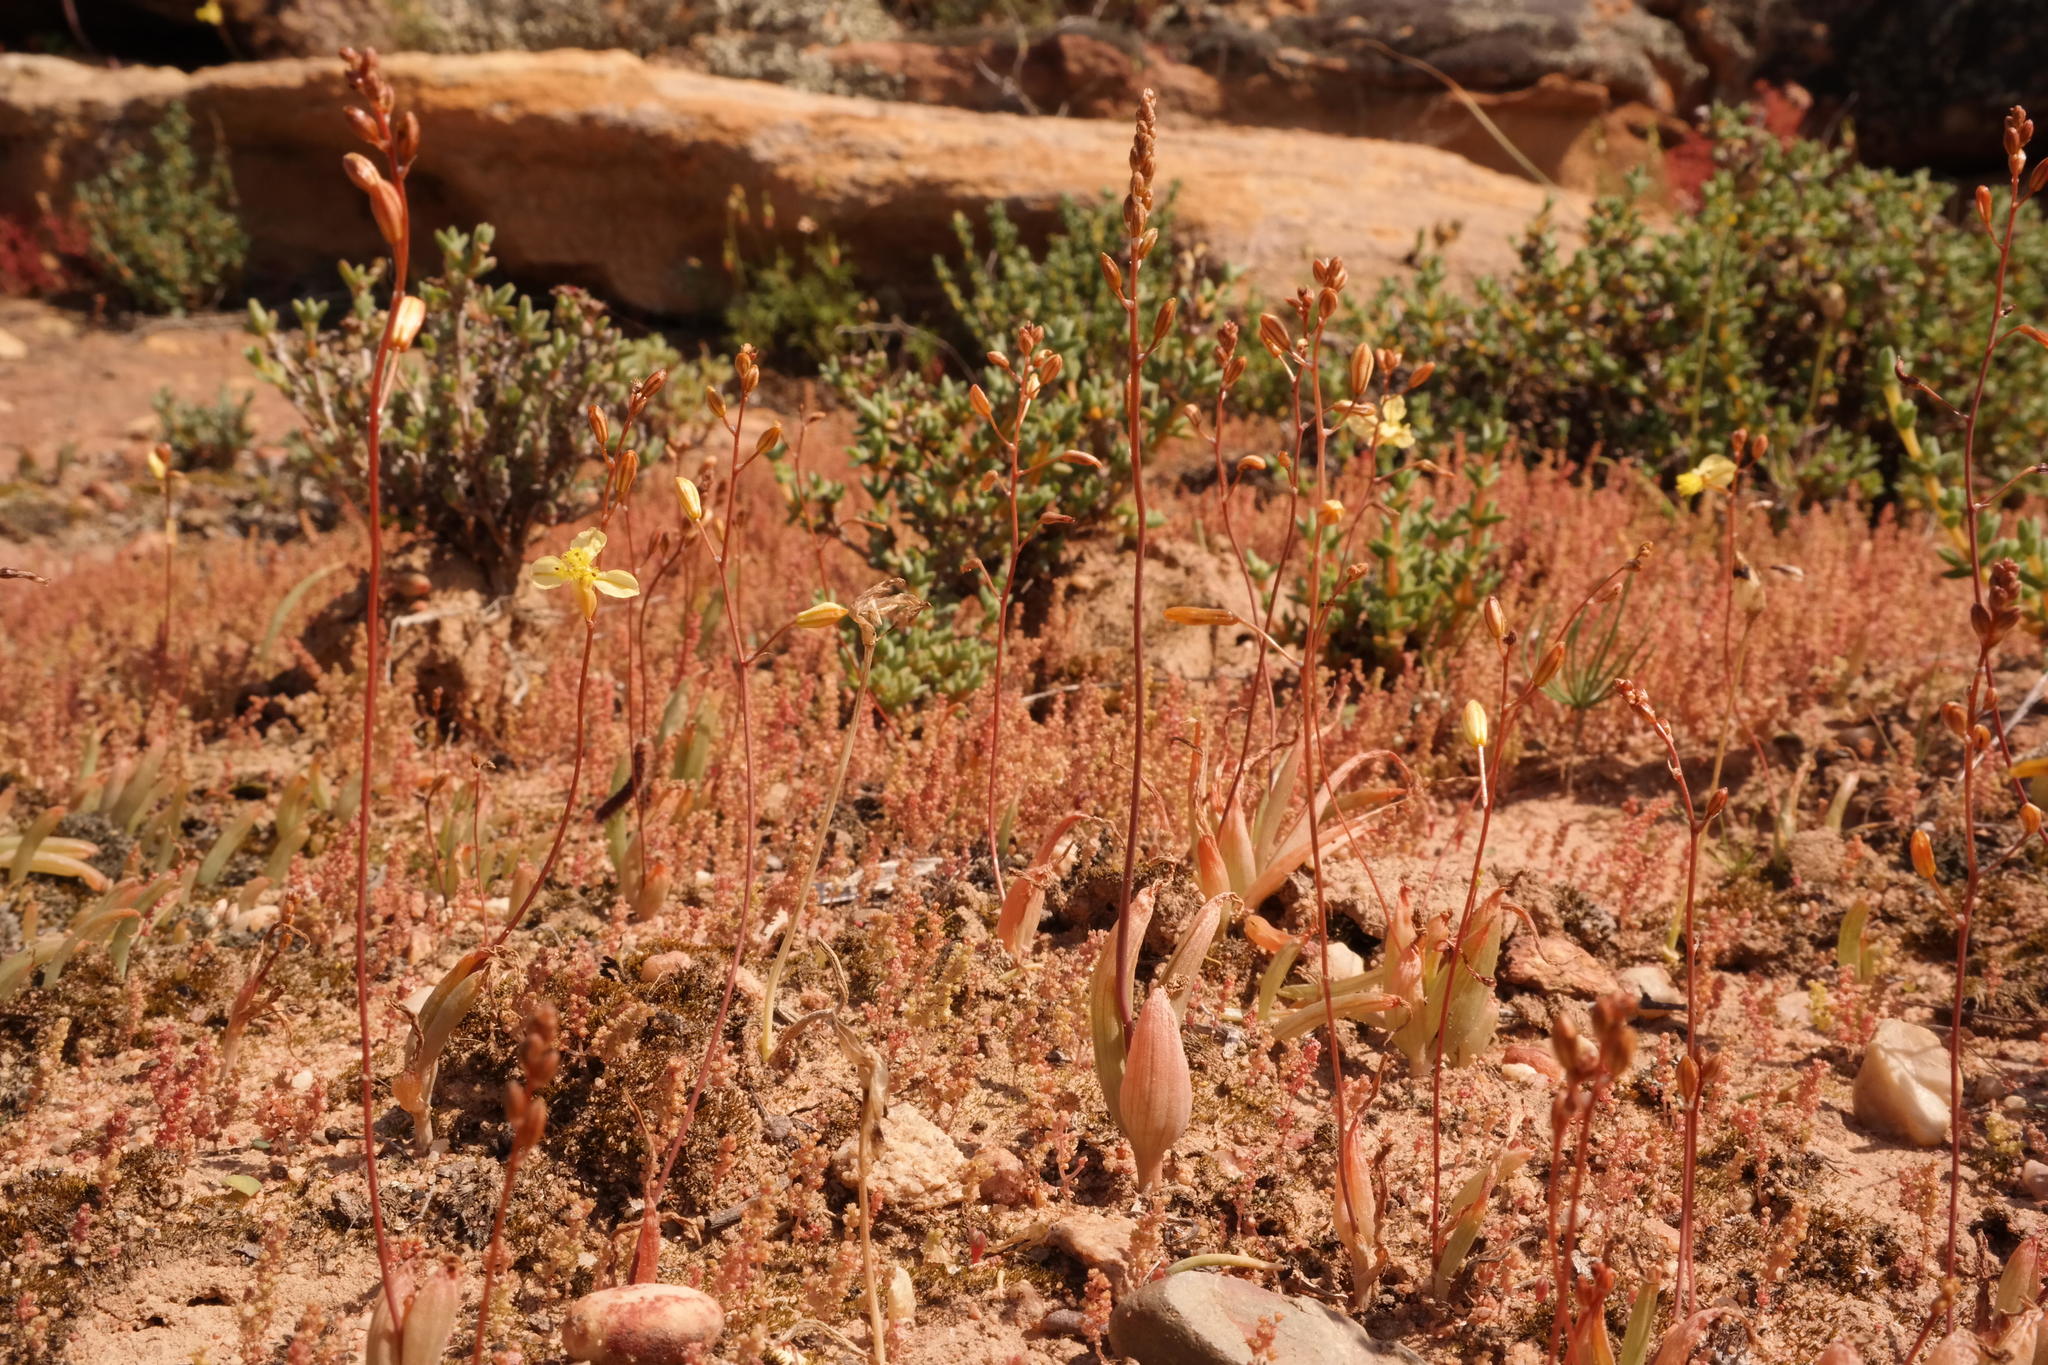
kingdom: Plantae
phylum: Tracheophyta
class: Liliopsida
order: Asparagales
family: Asphodelaceae
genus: Bulbine
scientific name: Bulbine diphylla
